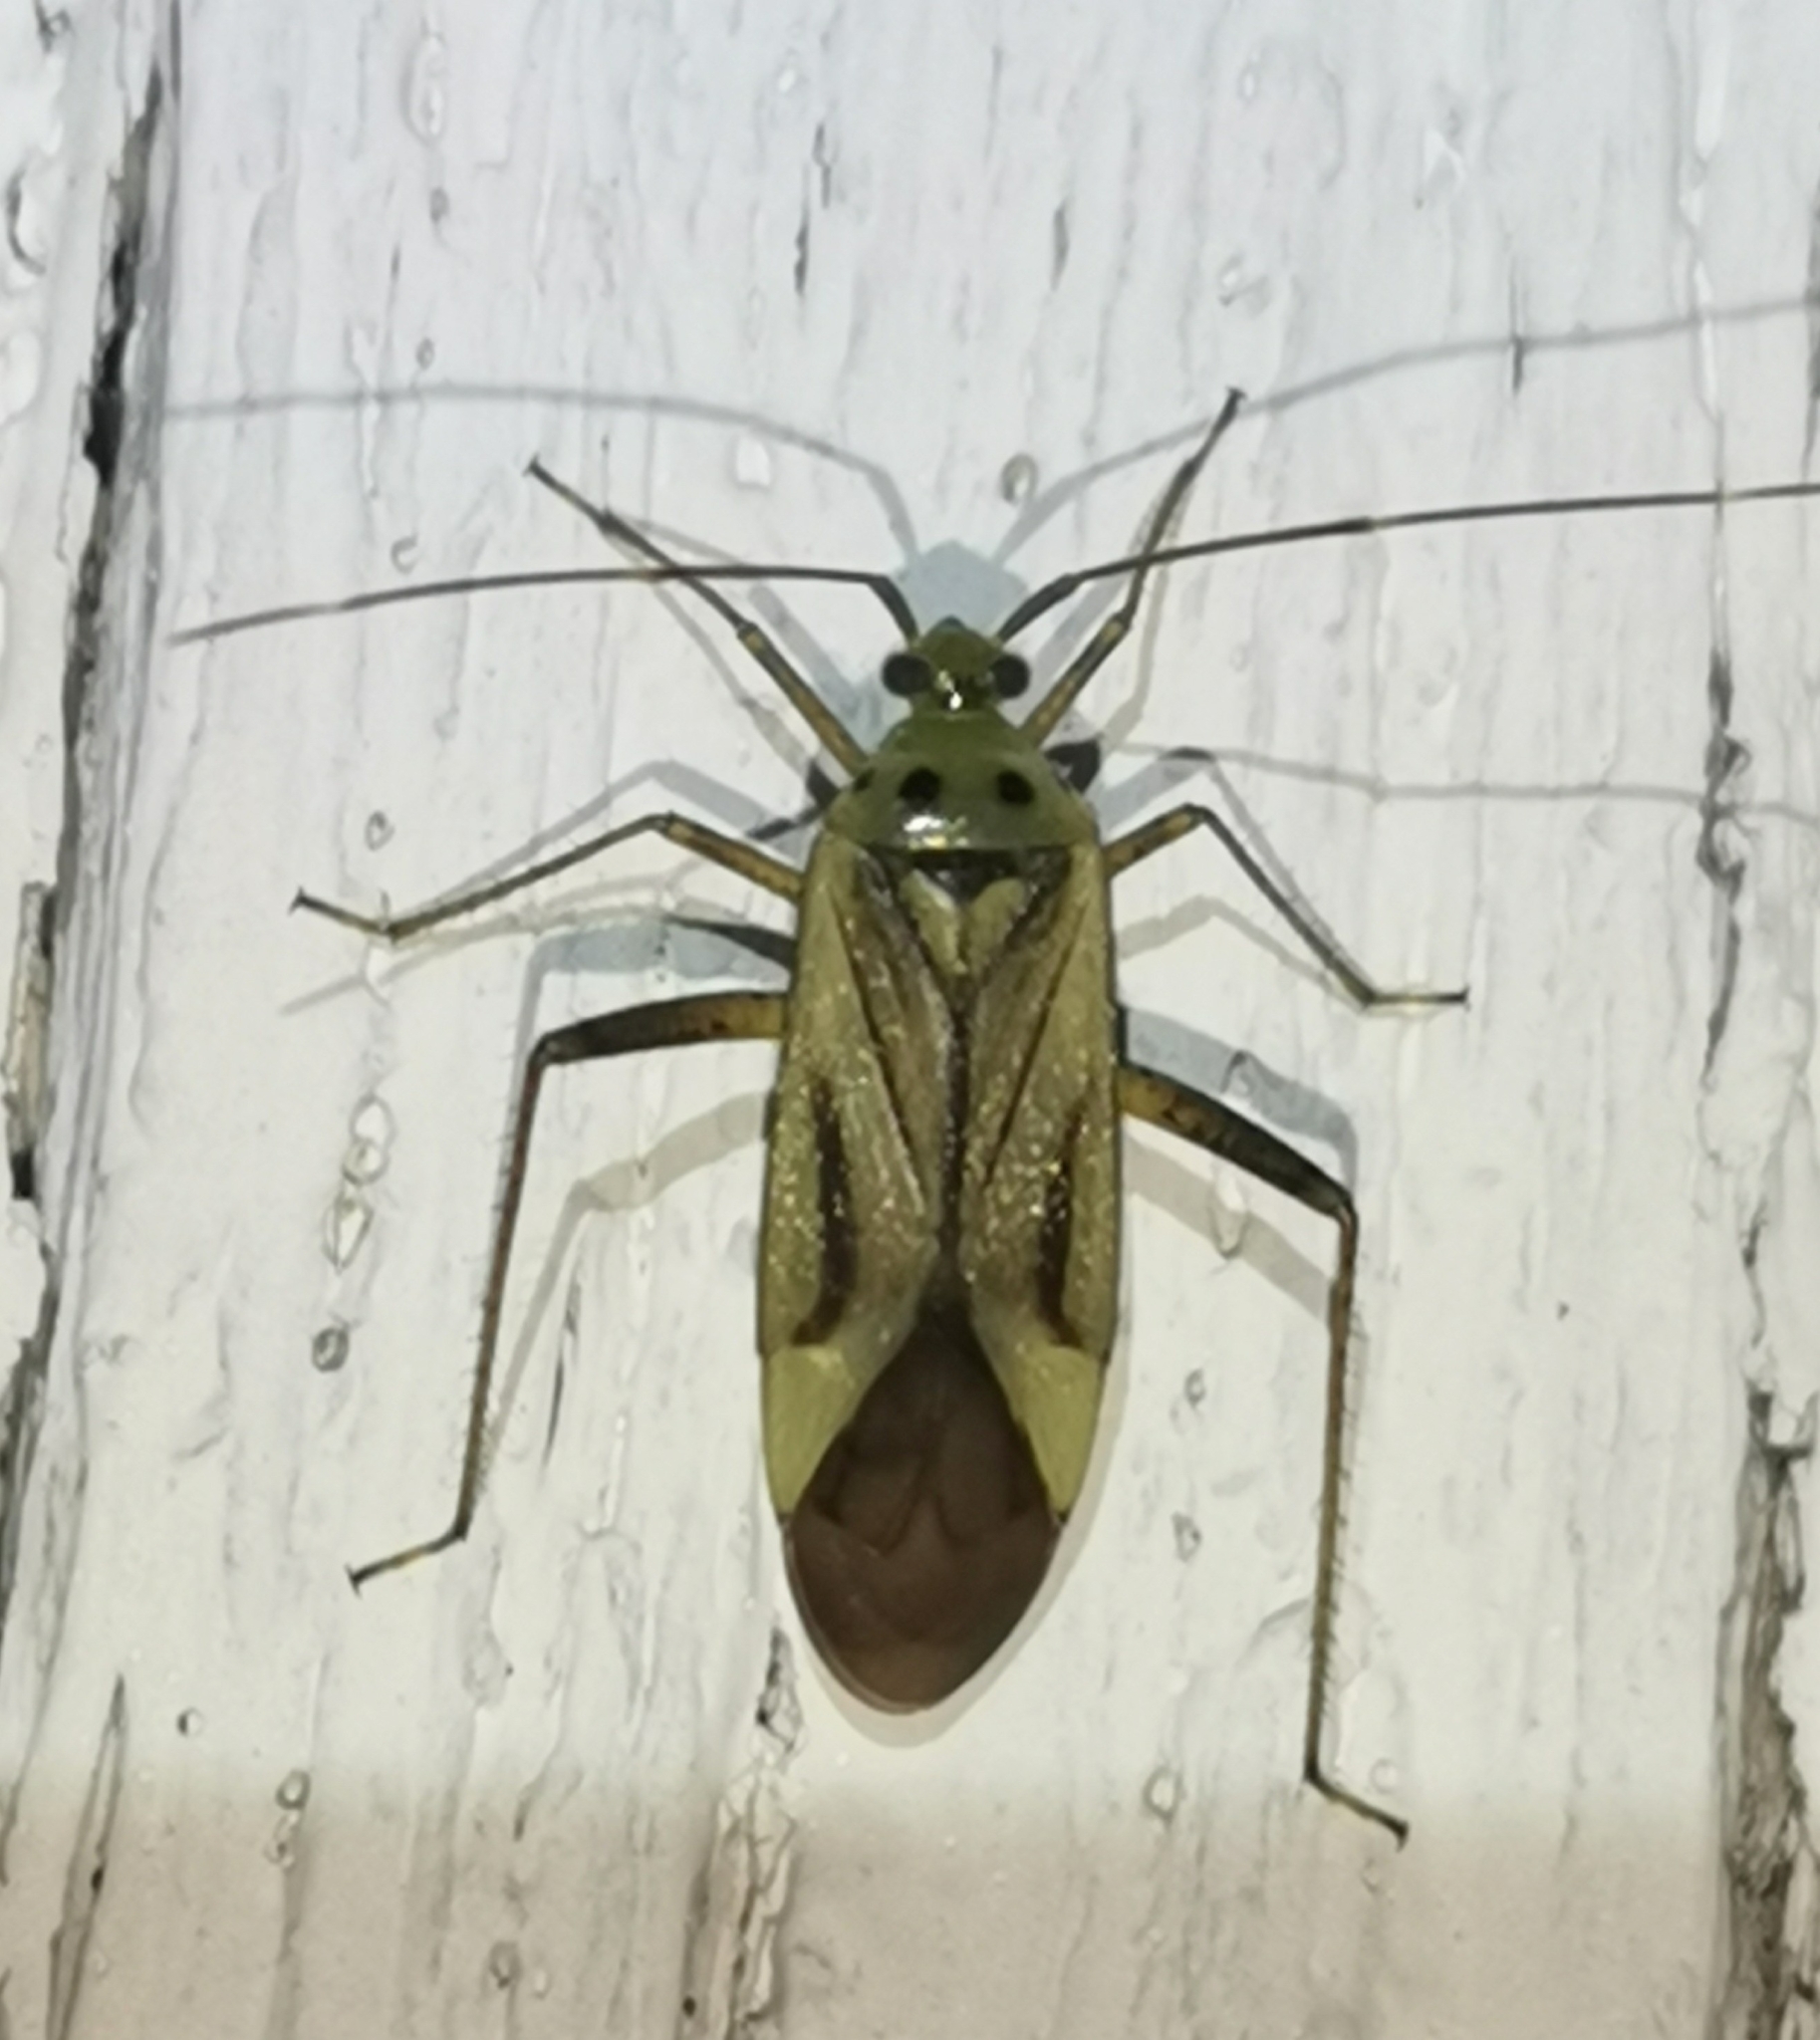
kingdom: Animalia
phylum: Arthropoda
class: Insecta
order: Hemiptera
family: Miridae
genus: Adelphocoris
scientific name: Adelphocoris quadripunctatus
